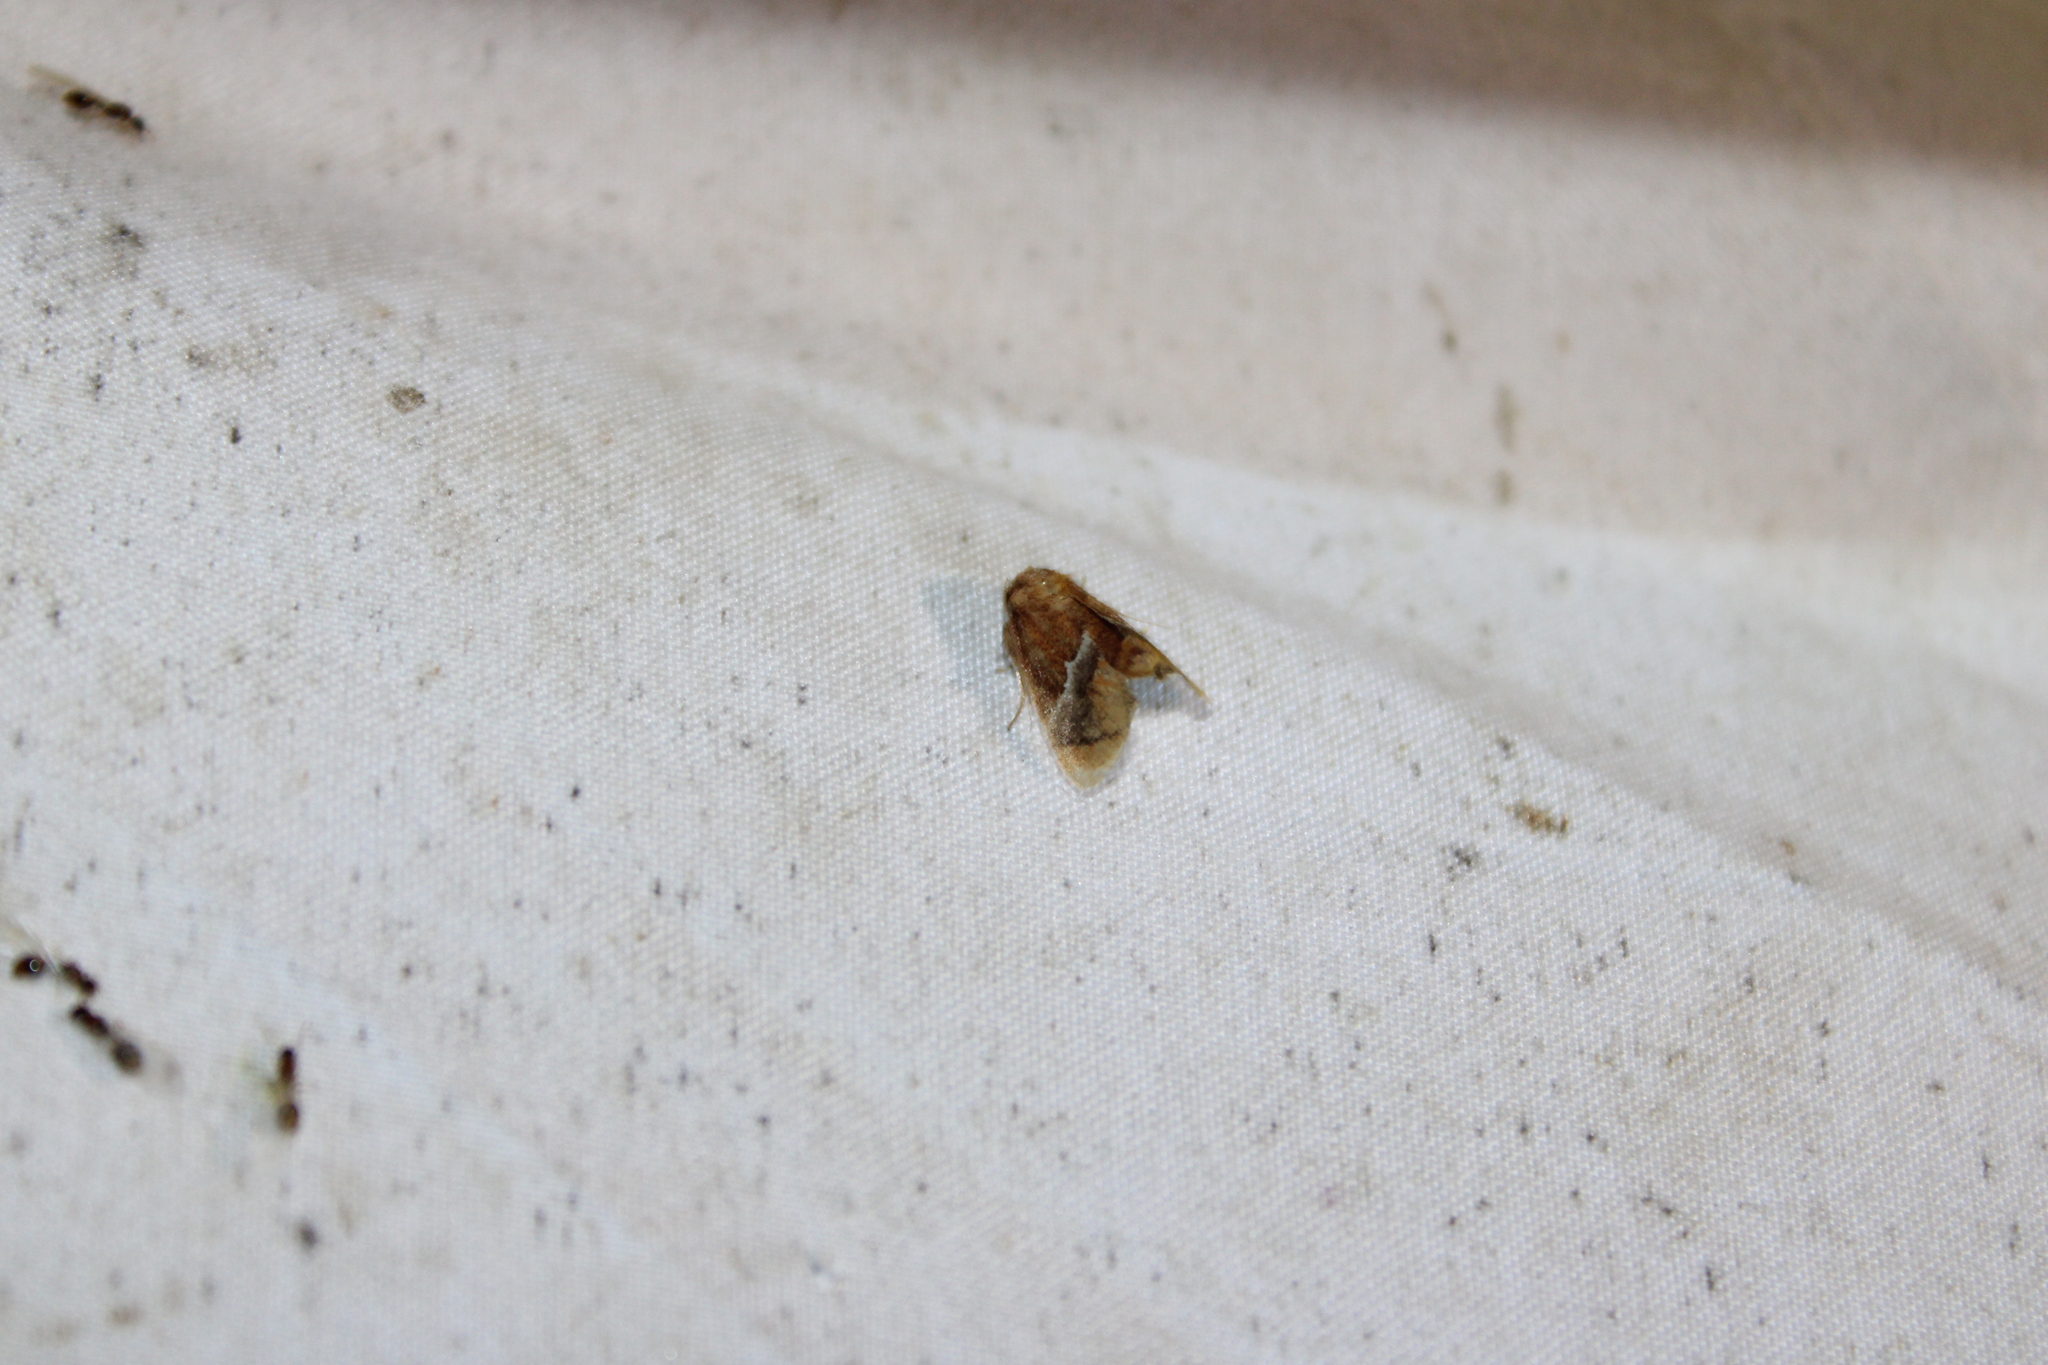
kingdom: Animalia
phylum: Arthropoda
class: Insecta
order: Lepidoptera
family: Limacodidae
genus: Lithacodes
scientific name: Lithacodes fasciola
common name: Yellow-shouldered slug moth
